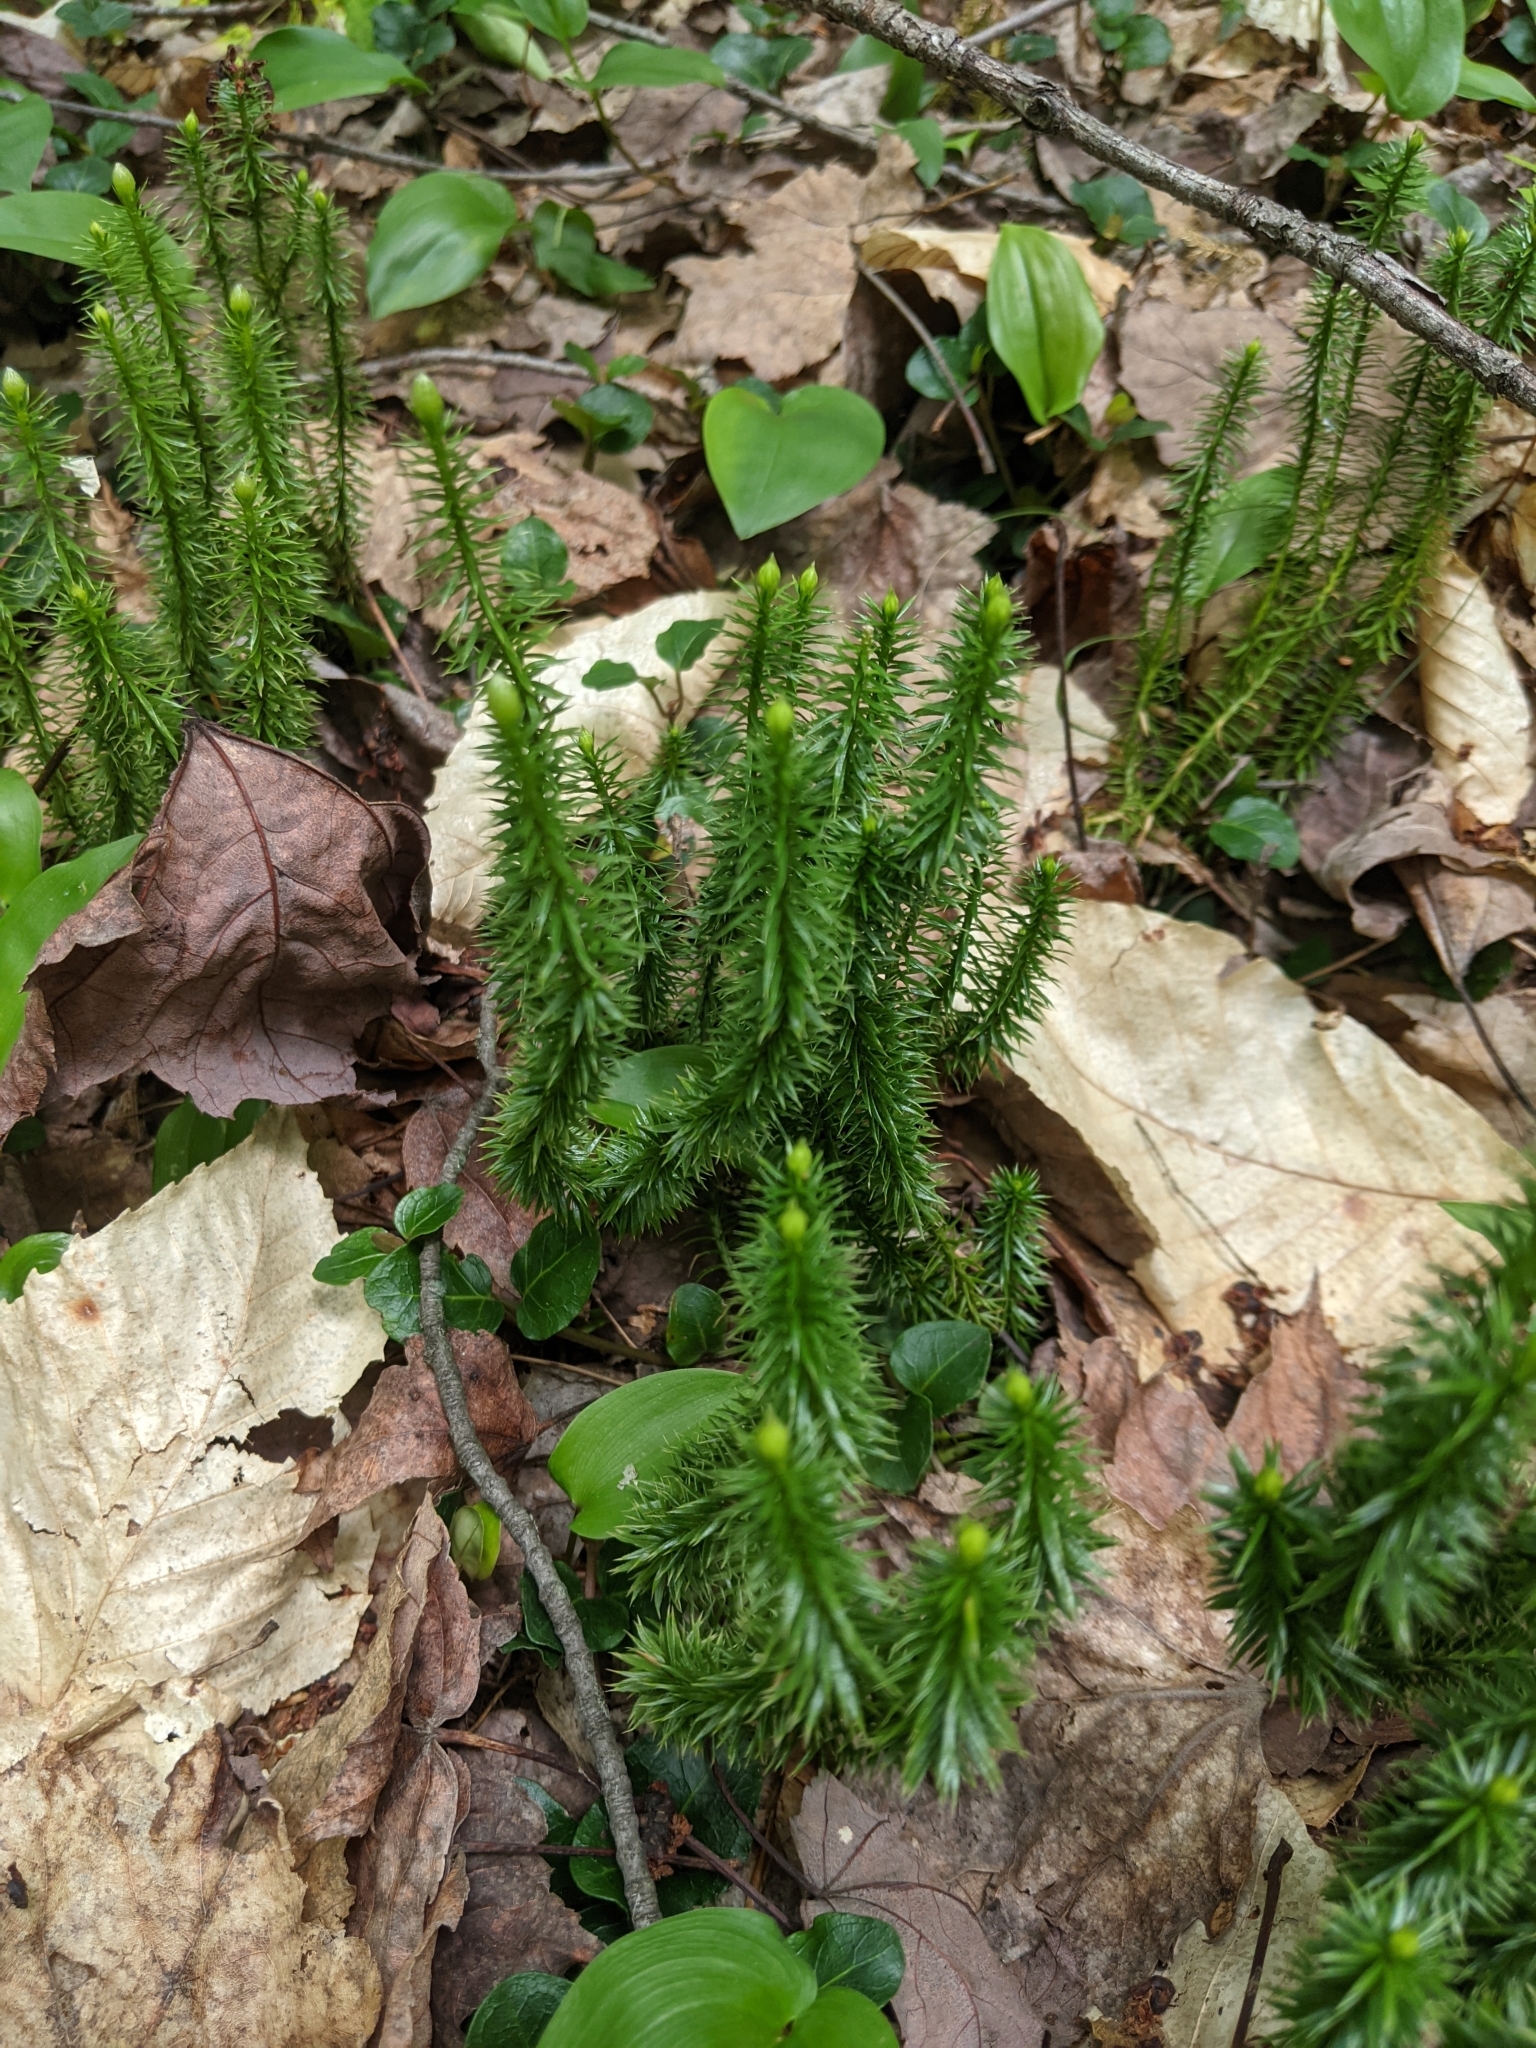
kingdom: Plantae
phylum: Tracheophyta
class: Lycopodiopsida
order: Lycopodiales
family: Lycopodiaceae
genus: Spinulum
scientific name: Spinulum annotinum
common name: Interrupted club-moss
